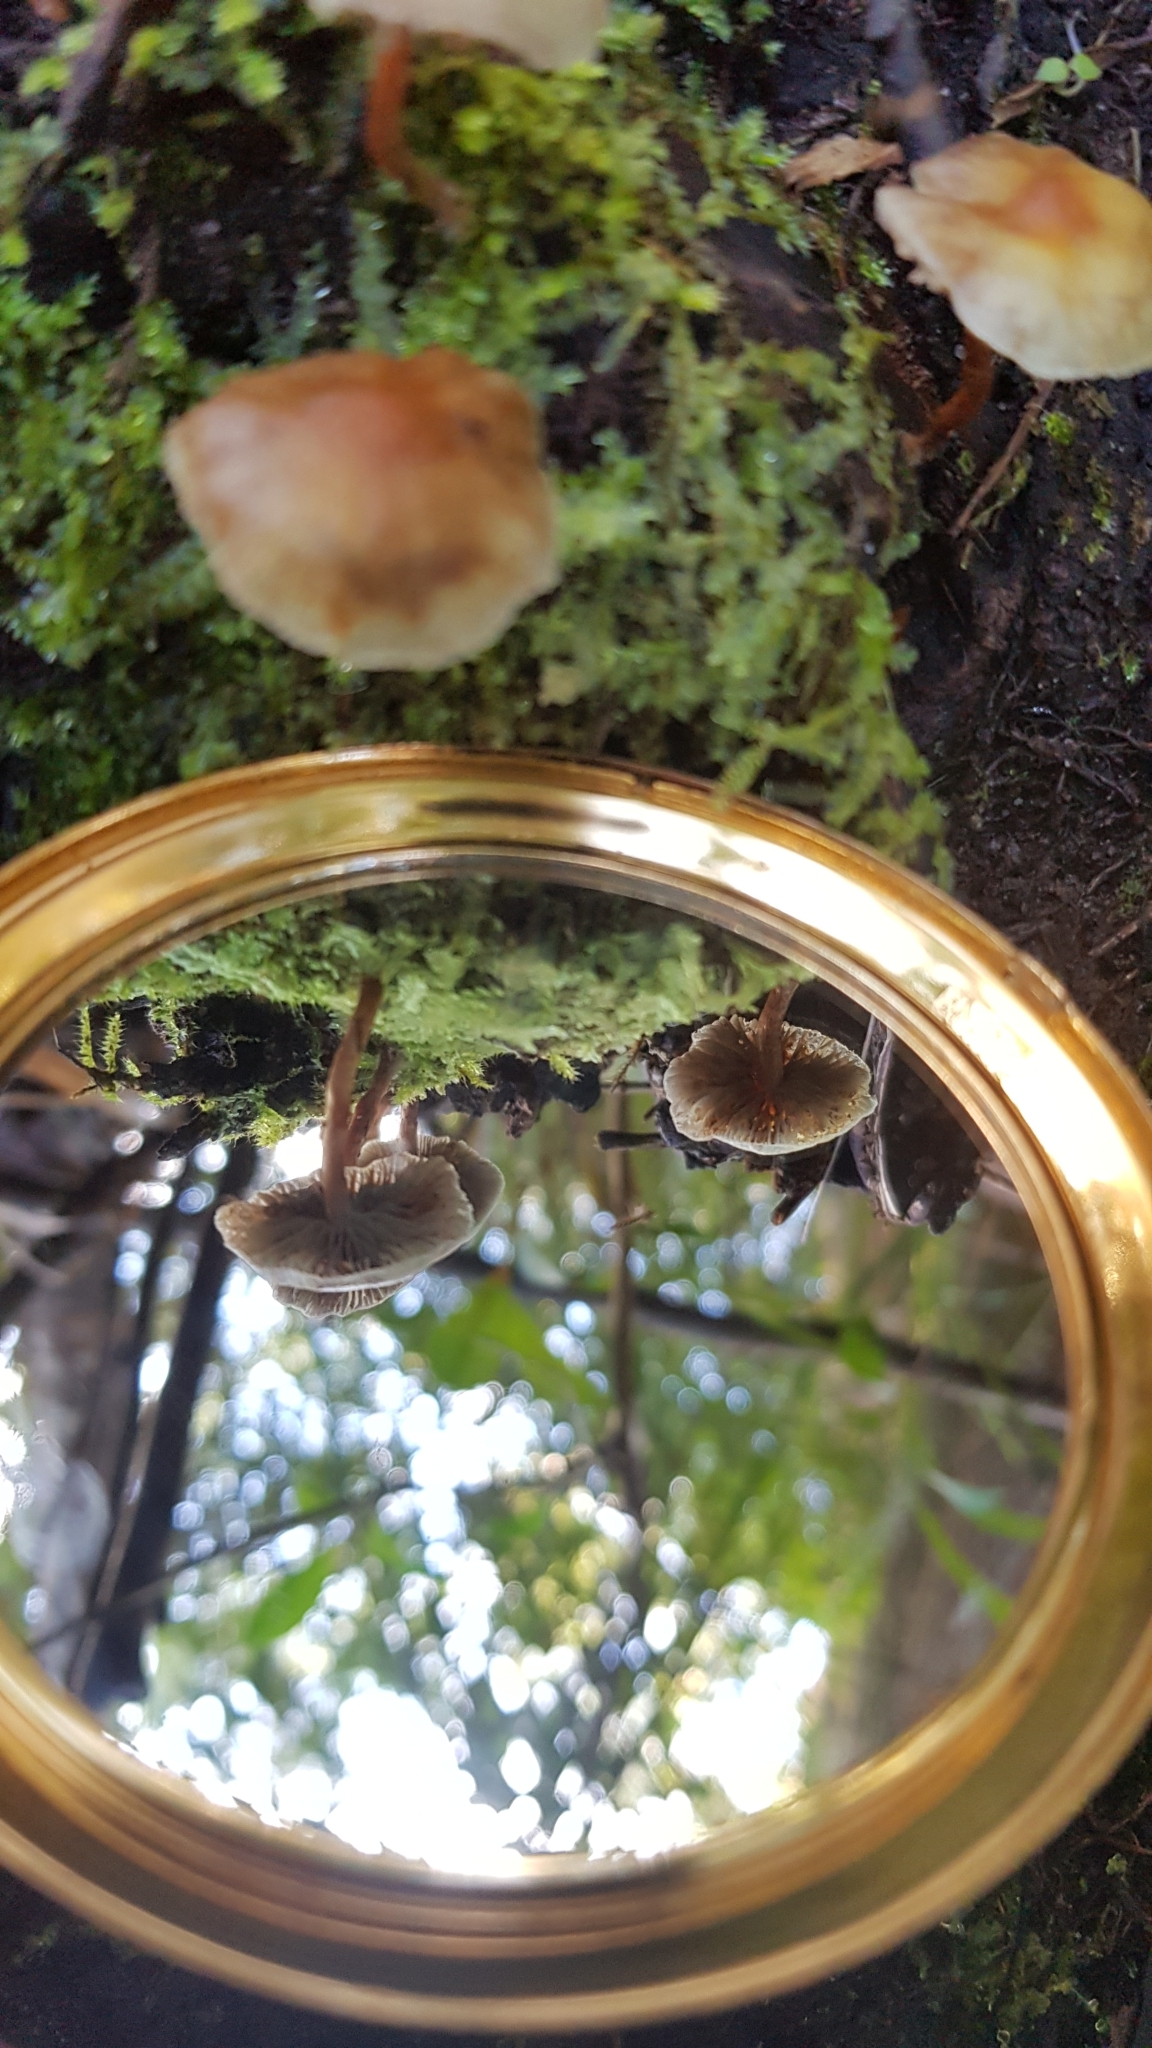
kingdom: Fungi
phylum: Basidiomycota
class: Agaricomycetes
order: Agaricales
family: Strophariaceae
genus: Hypholoma
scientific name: Hypholoma fasciculare
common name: Sulphur tuft
